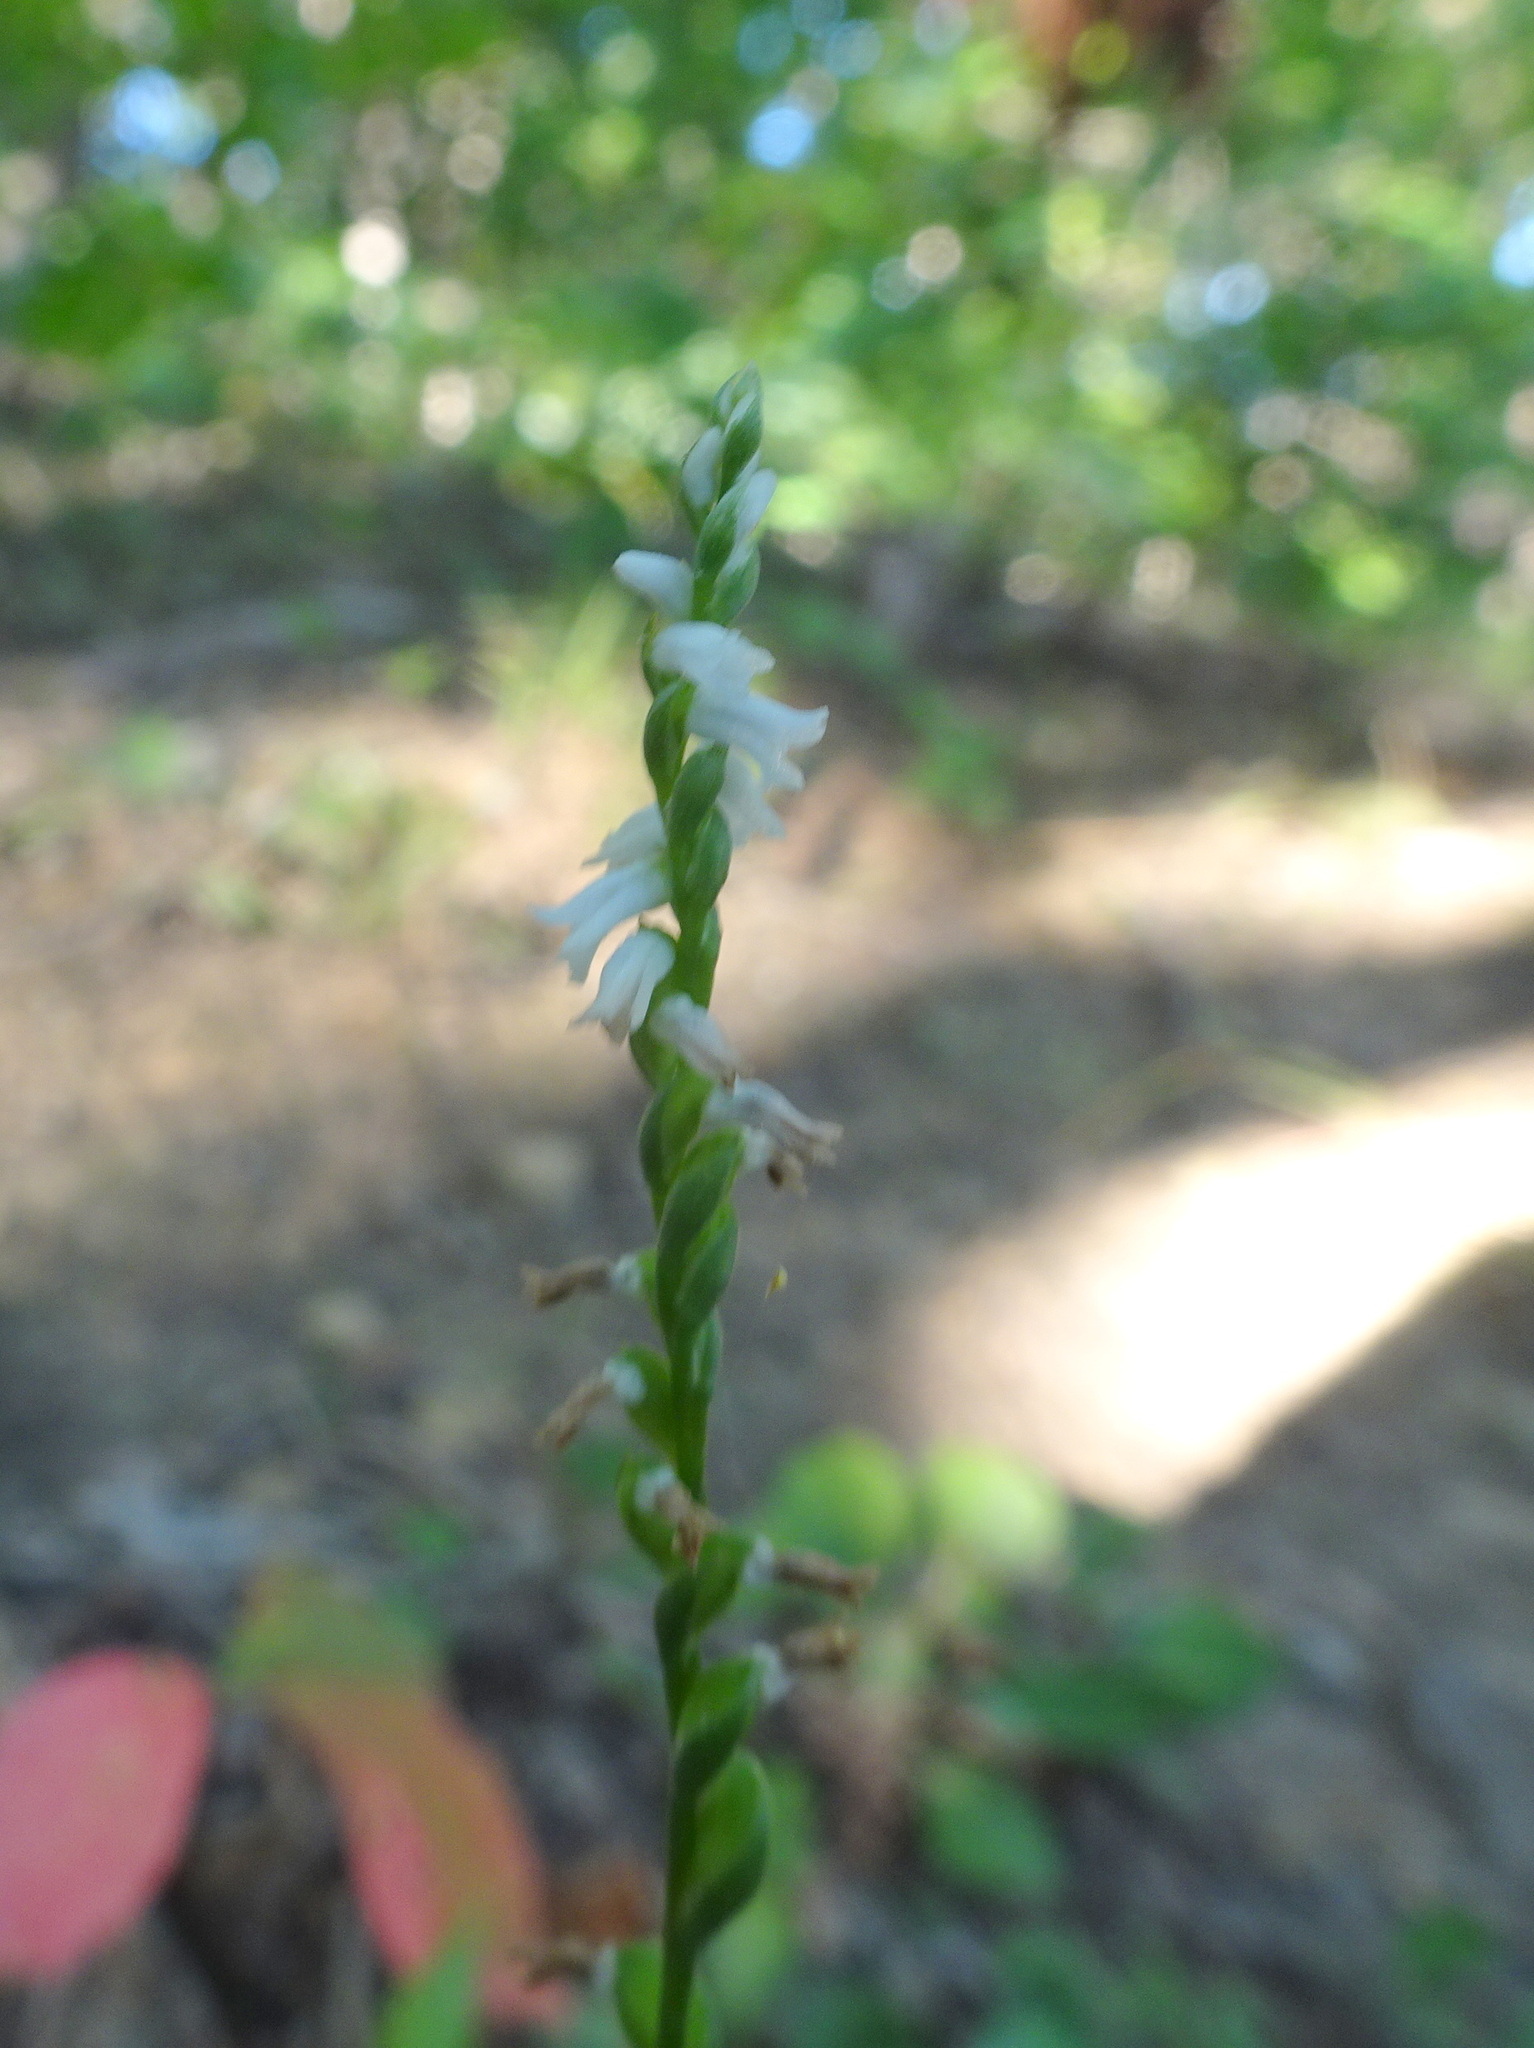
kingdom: Plantae
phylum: Tracheophyta
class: Liliopsida
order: Asparagales
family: Orchidaceae
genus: Spiranthes
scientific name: Spiranthes tuberosa
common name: Little ladies'-tresses
